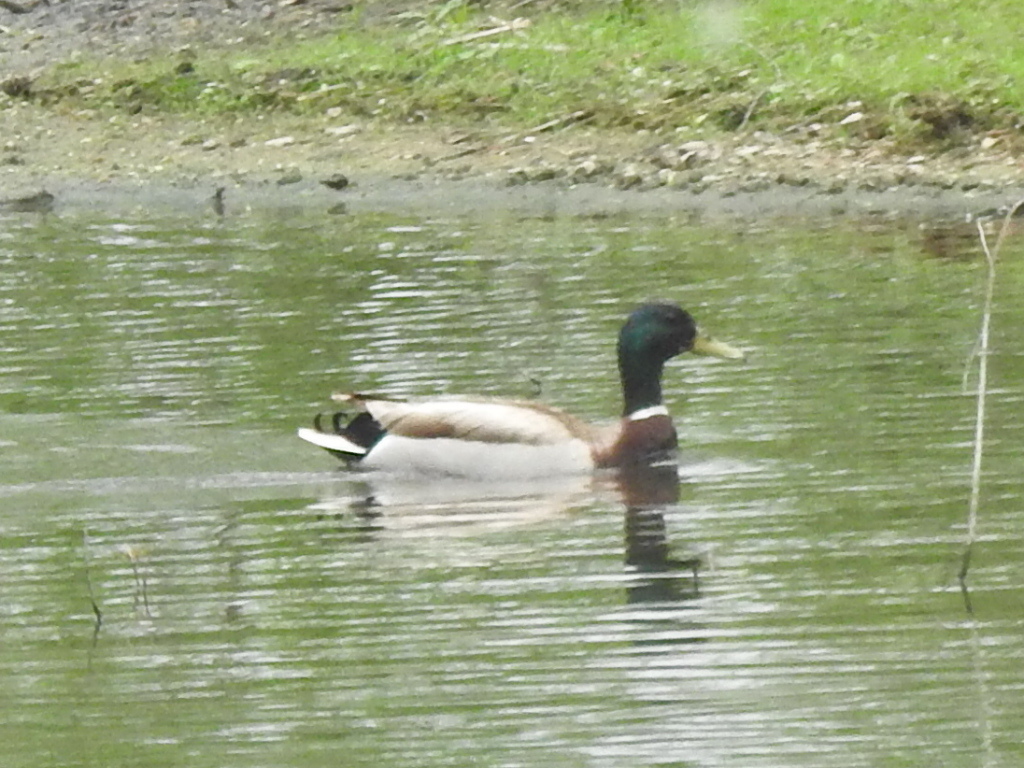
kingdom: Animalia
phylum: Chordata
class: Aves
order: Anseriformes
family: Anatidae
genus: Anas
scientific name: Anas platyrhynchos
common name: Mallard
